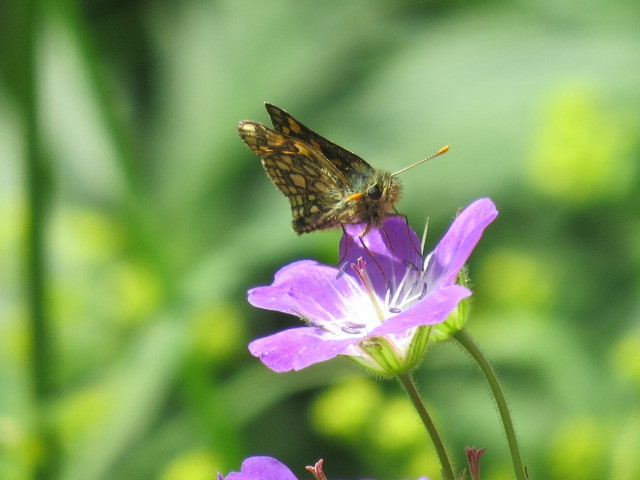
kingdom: Animalia
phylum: Arthropoda
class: Insecta
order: Lepidoptera
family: Hesperiidae
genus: Carterocephalus
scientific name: Carterocephalus palaemon
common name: Chequered skipper
